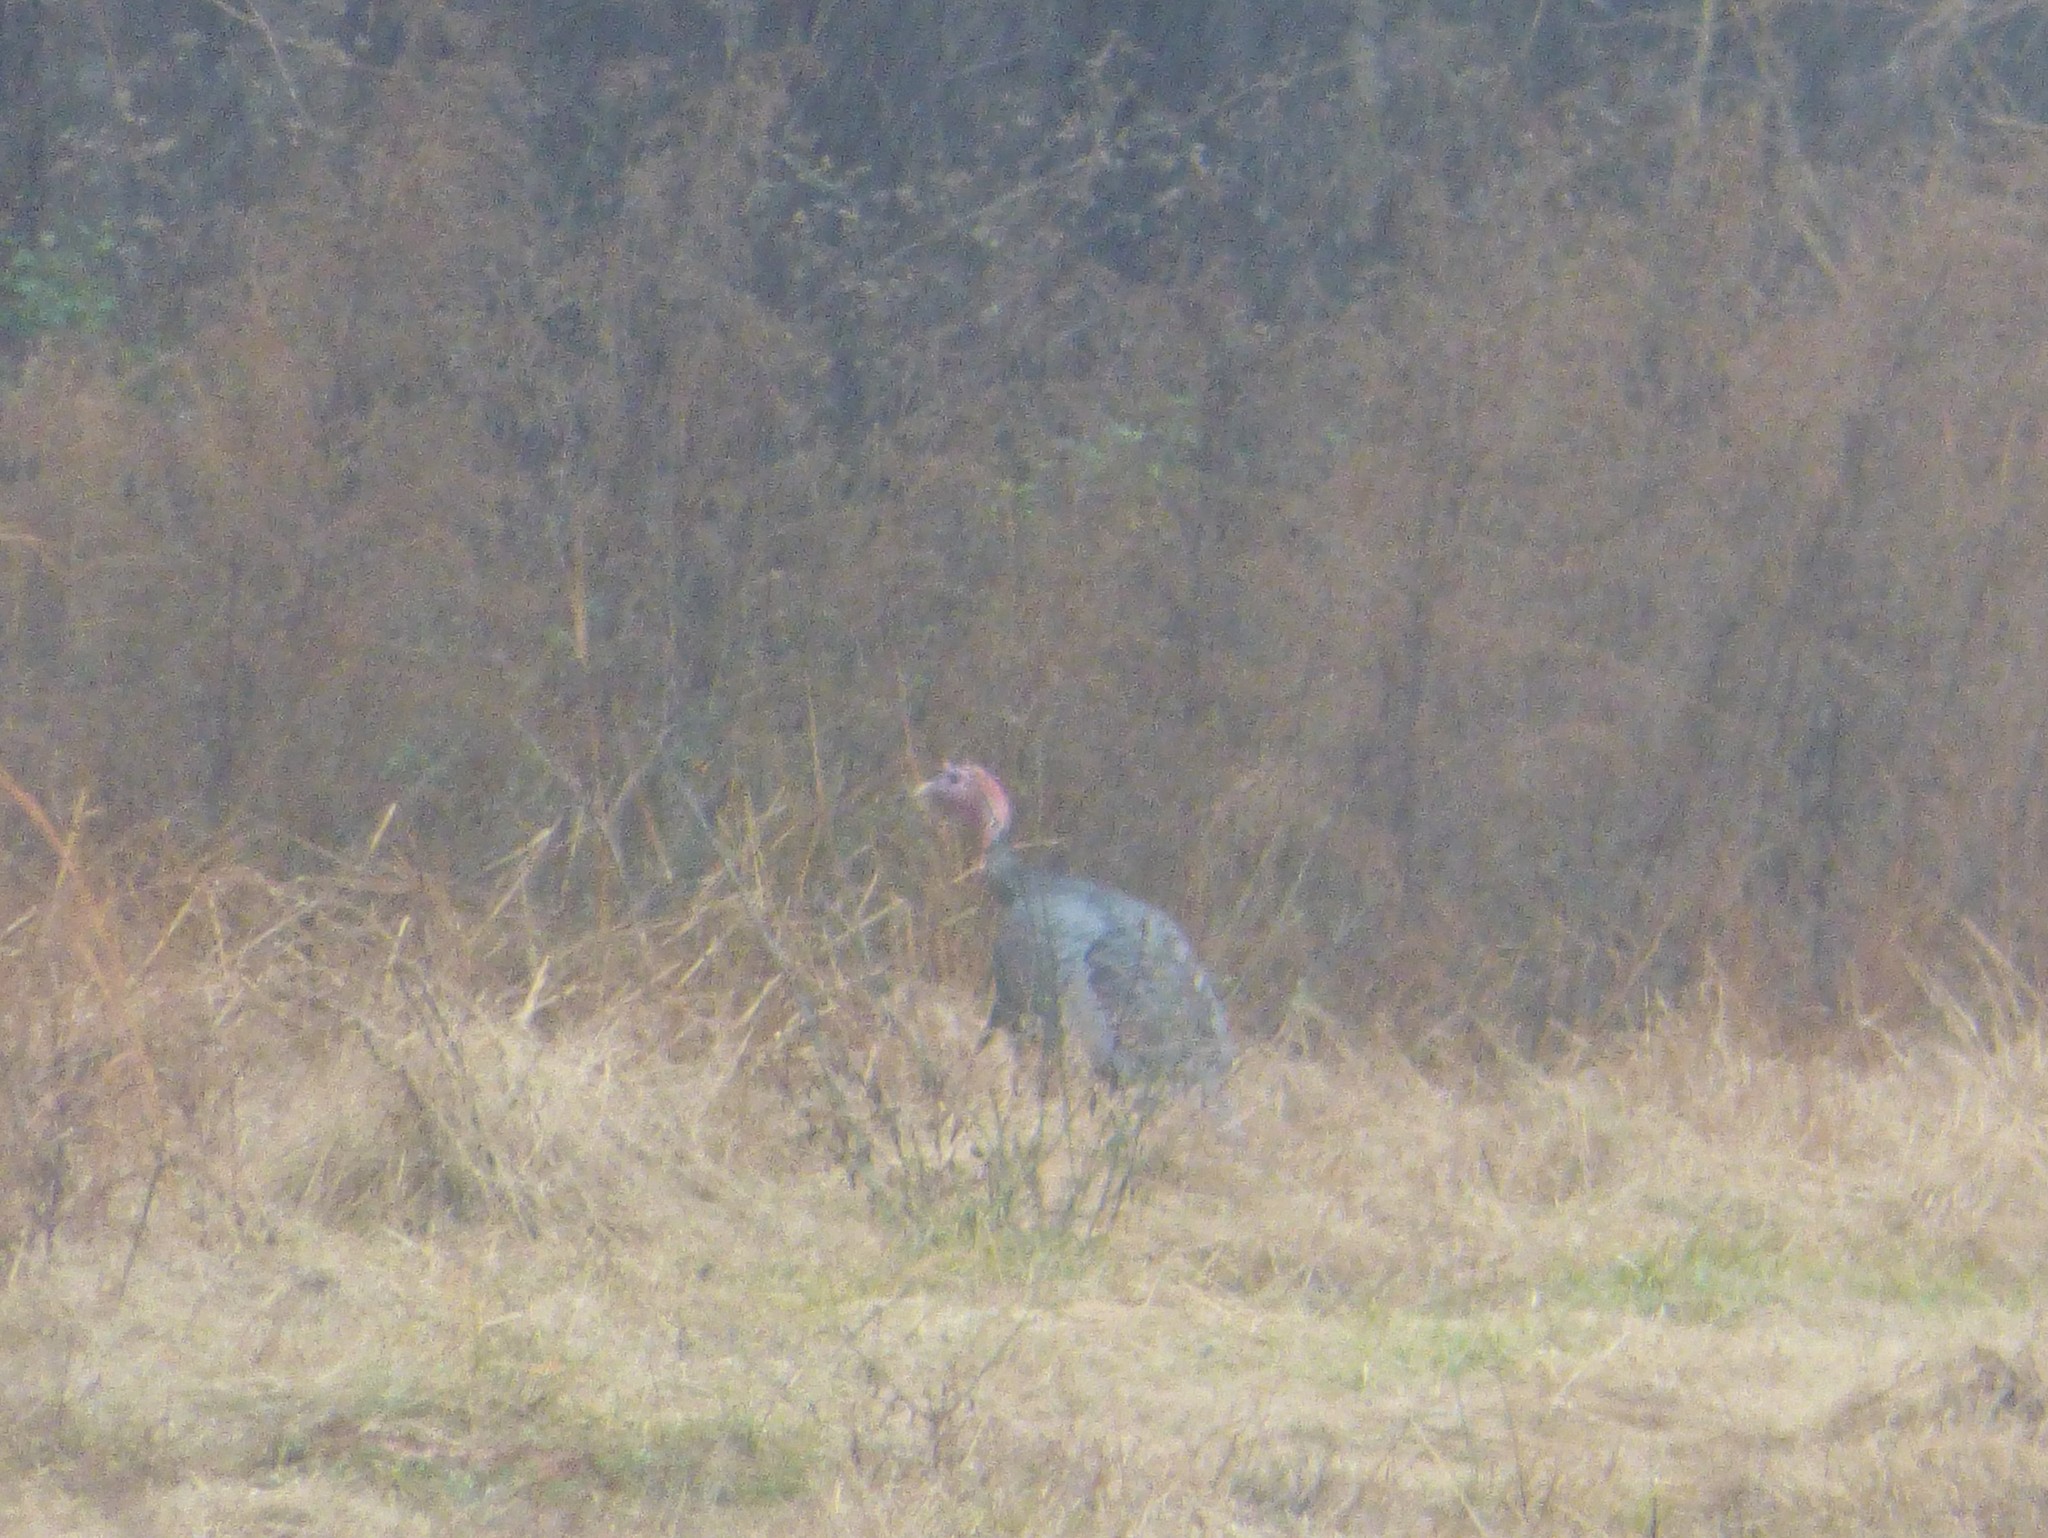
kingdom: Animalia
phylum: Chordata
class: Aves
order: Galliformes
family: Phasianidae
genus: Meleagris
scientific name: Meleagris gallopavo
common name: Wild turkey
